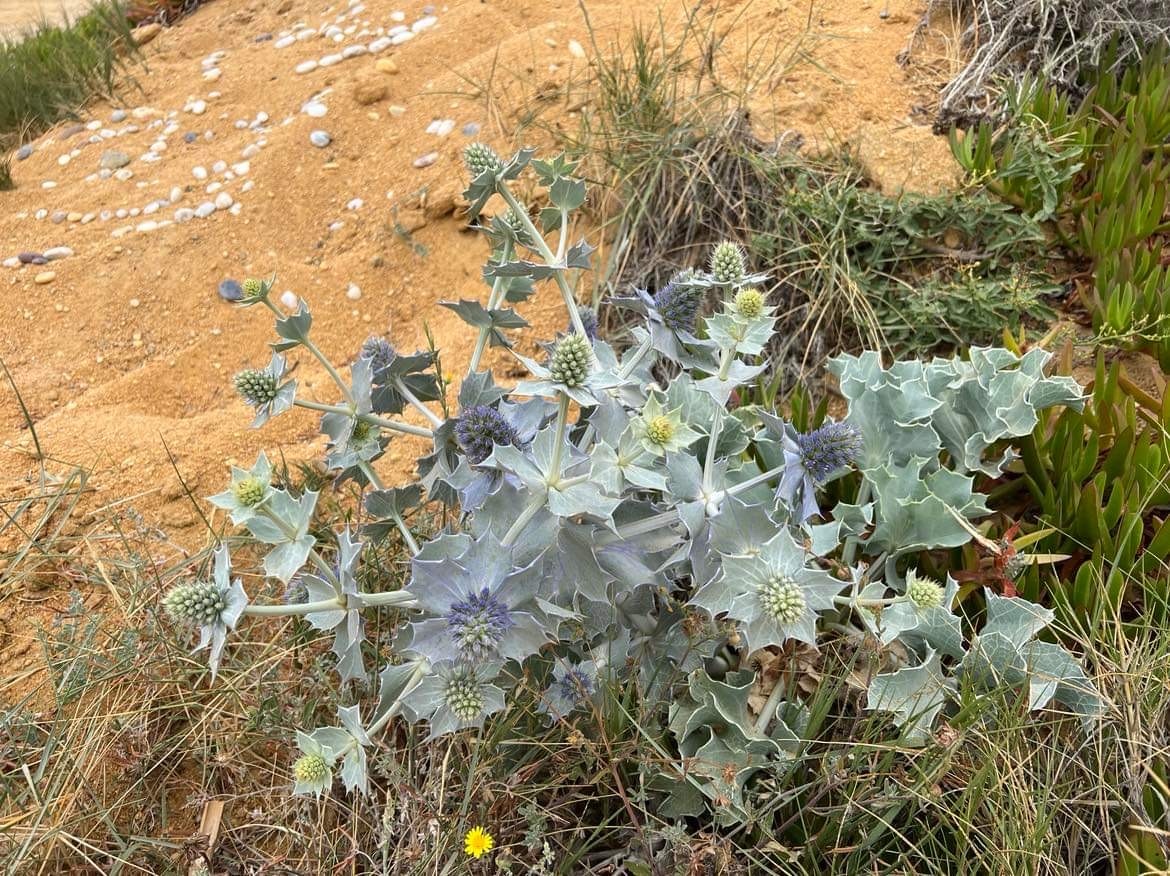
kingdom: Plantae
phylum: Tracheophyta
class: Magnoliopsida
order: Apiales
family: Apiaceae
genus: Eryngium
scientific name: Eryngium maritimum
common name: Sea-holly
